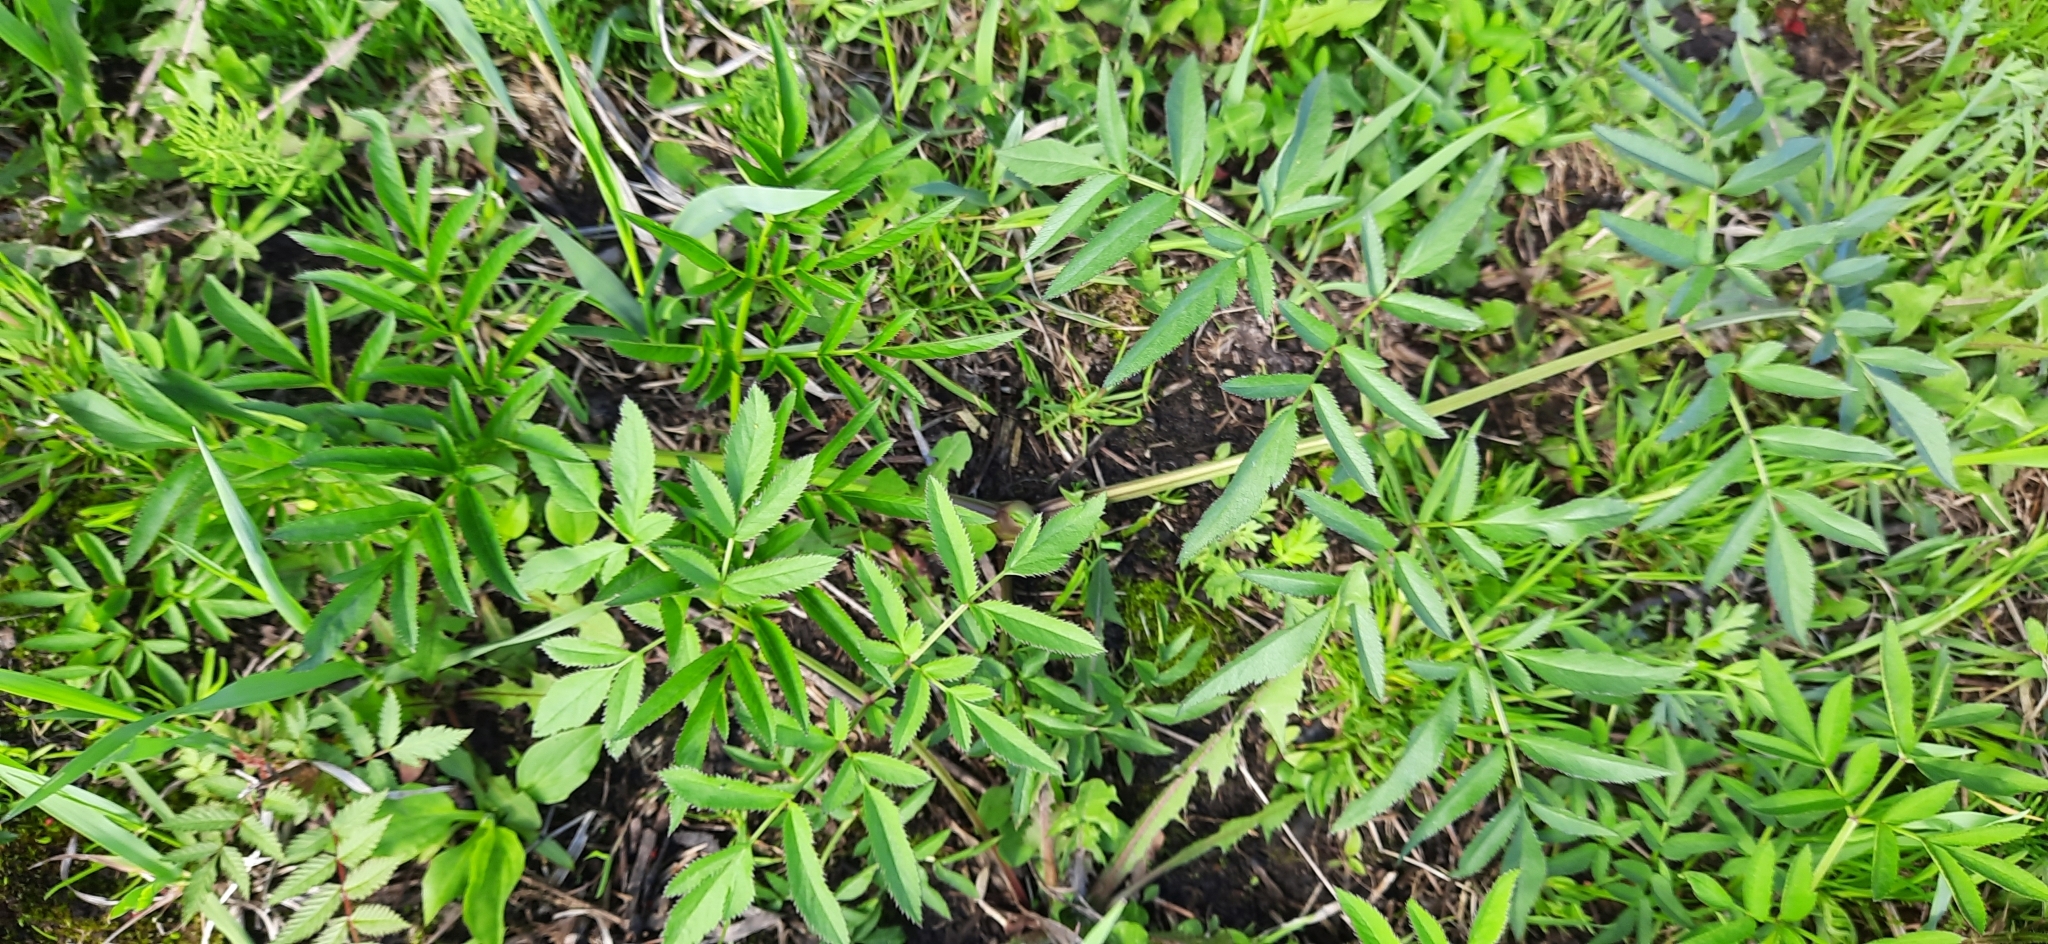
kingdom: Plantae
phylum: Tracheophyta
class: Magnoliopsida
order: Apiales
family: Apiaceae
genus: Angelica
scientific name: Angelica sylvestris
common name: Wild angelica
